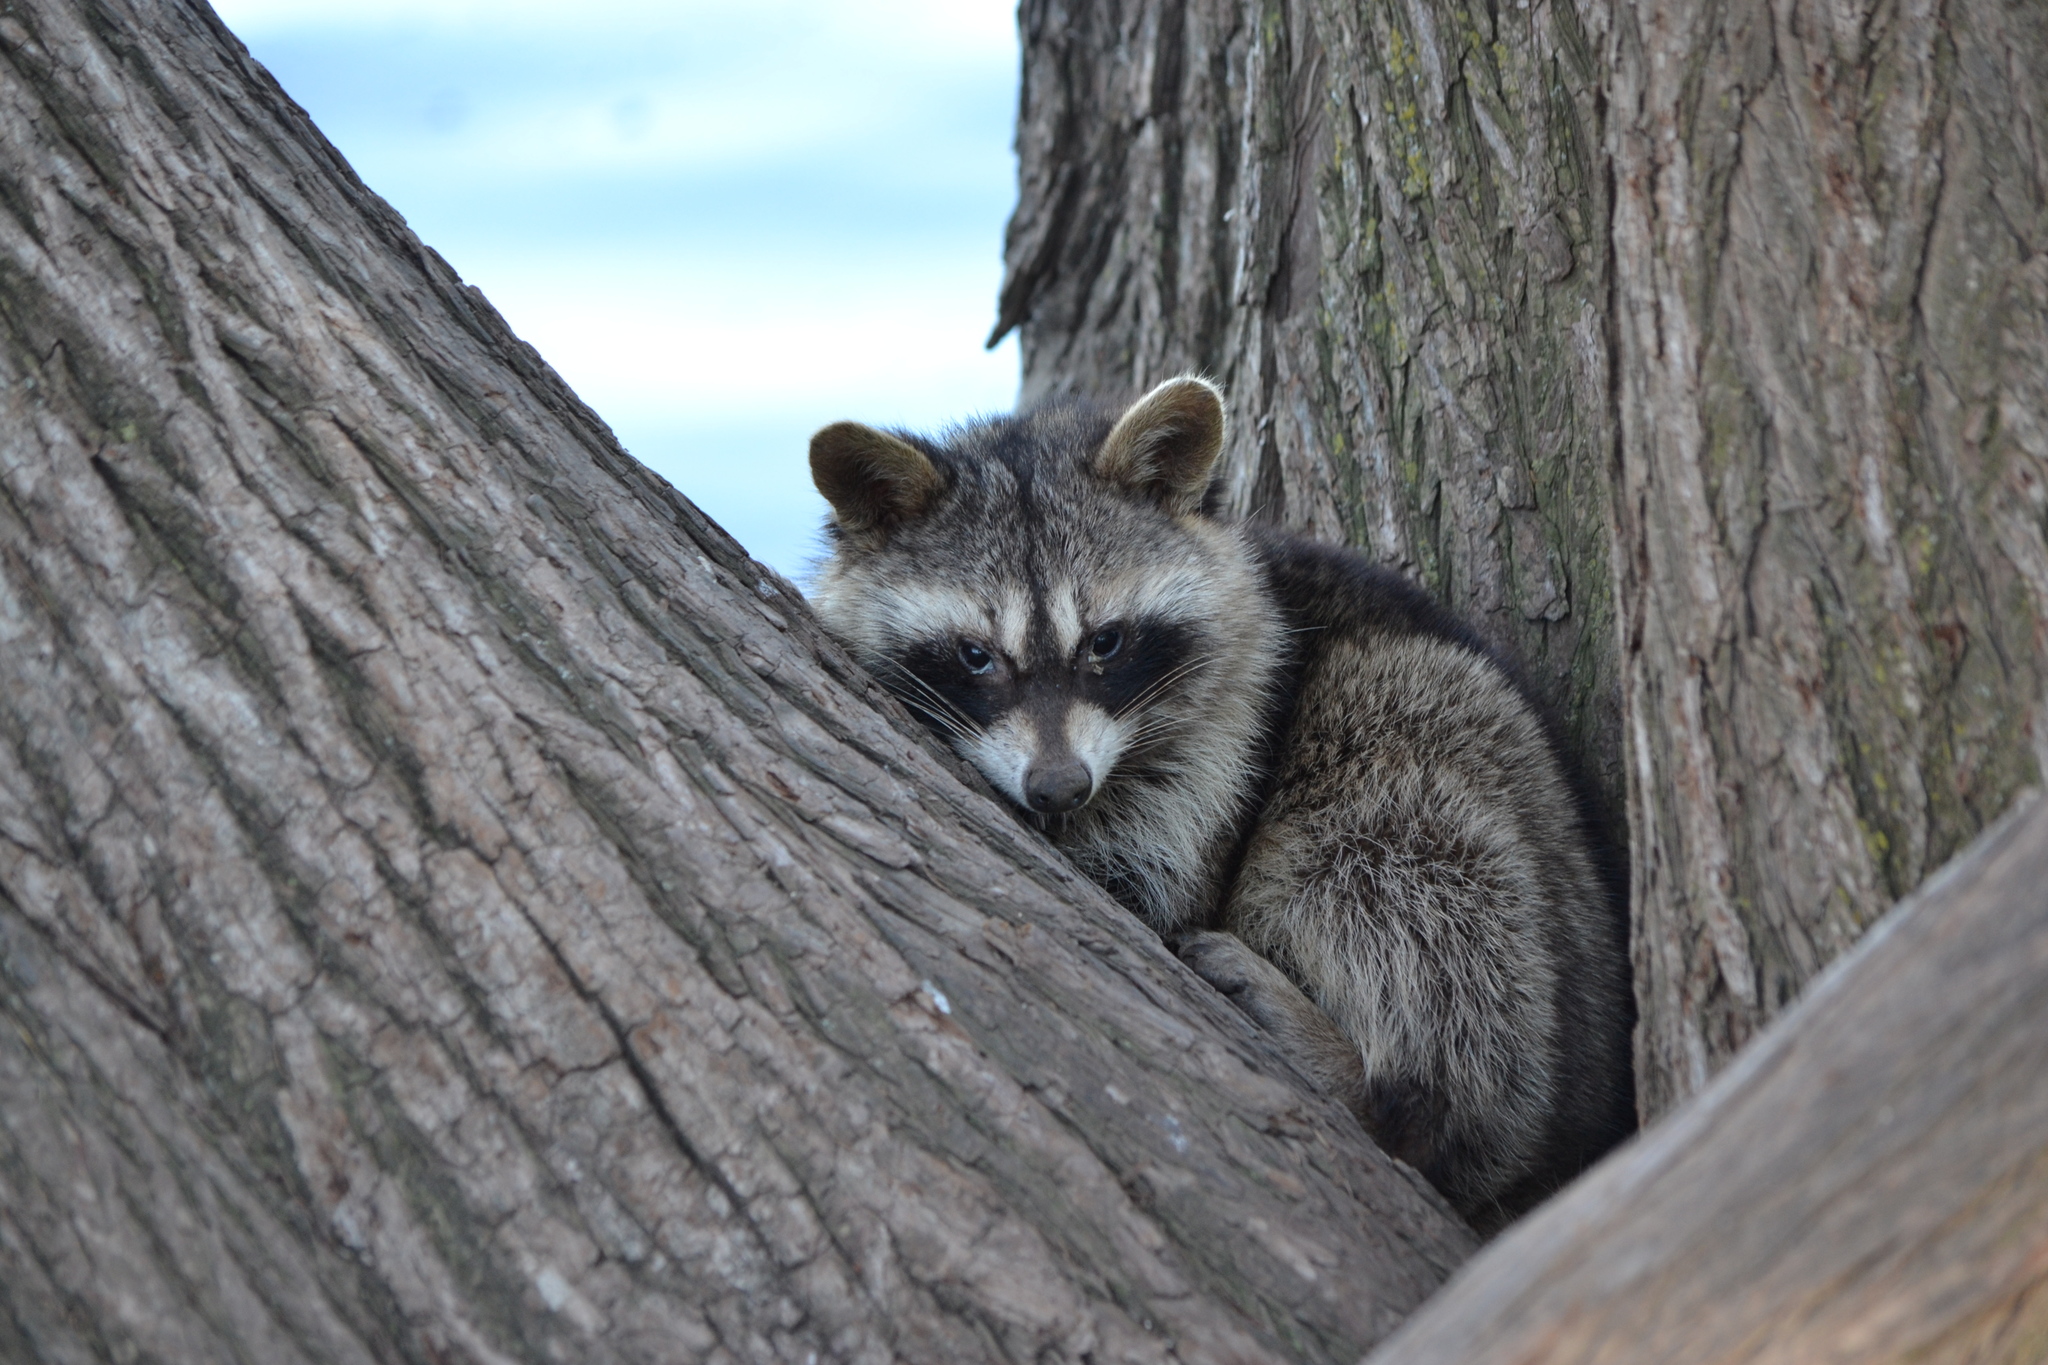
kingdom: Animalia
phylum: Chordata
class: Mammalia
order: Carnivora
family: Procyonidae
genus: Procyon
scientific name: Procyon lotor
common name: Raccoon
